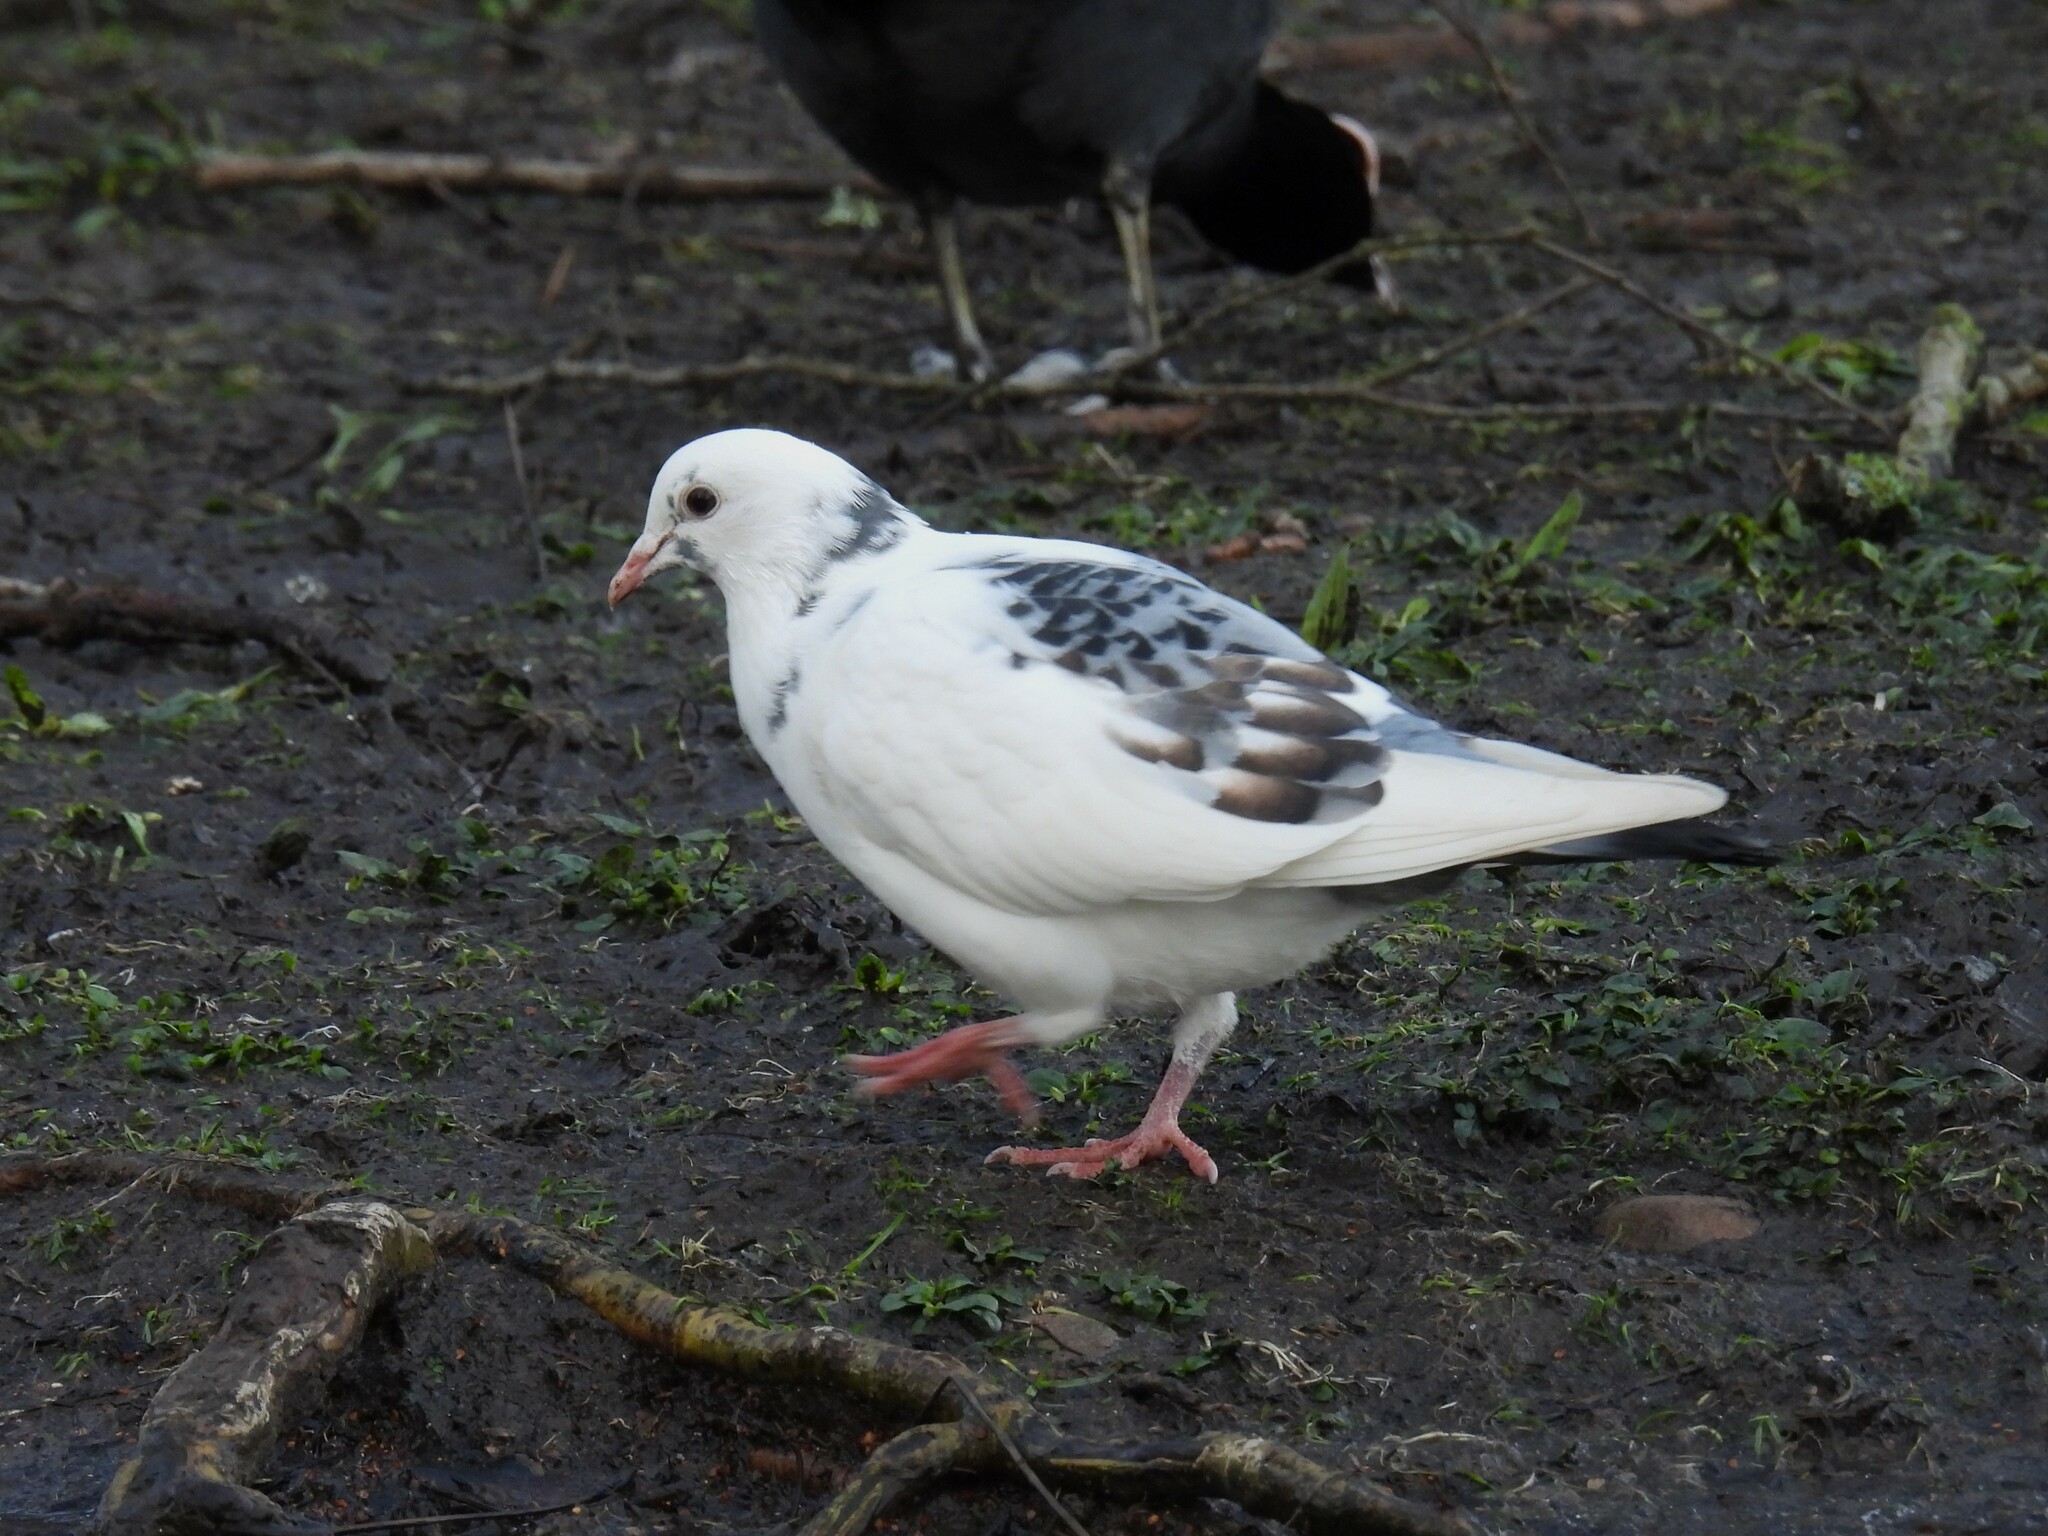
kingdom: Animalia
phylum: Chordata
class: Aves
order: Columbiformes
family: Columbidae
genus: Columba
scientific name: Columba livia
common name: Rock pigeon
